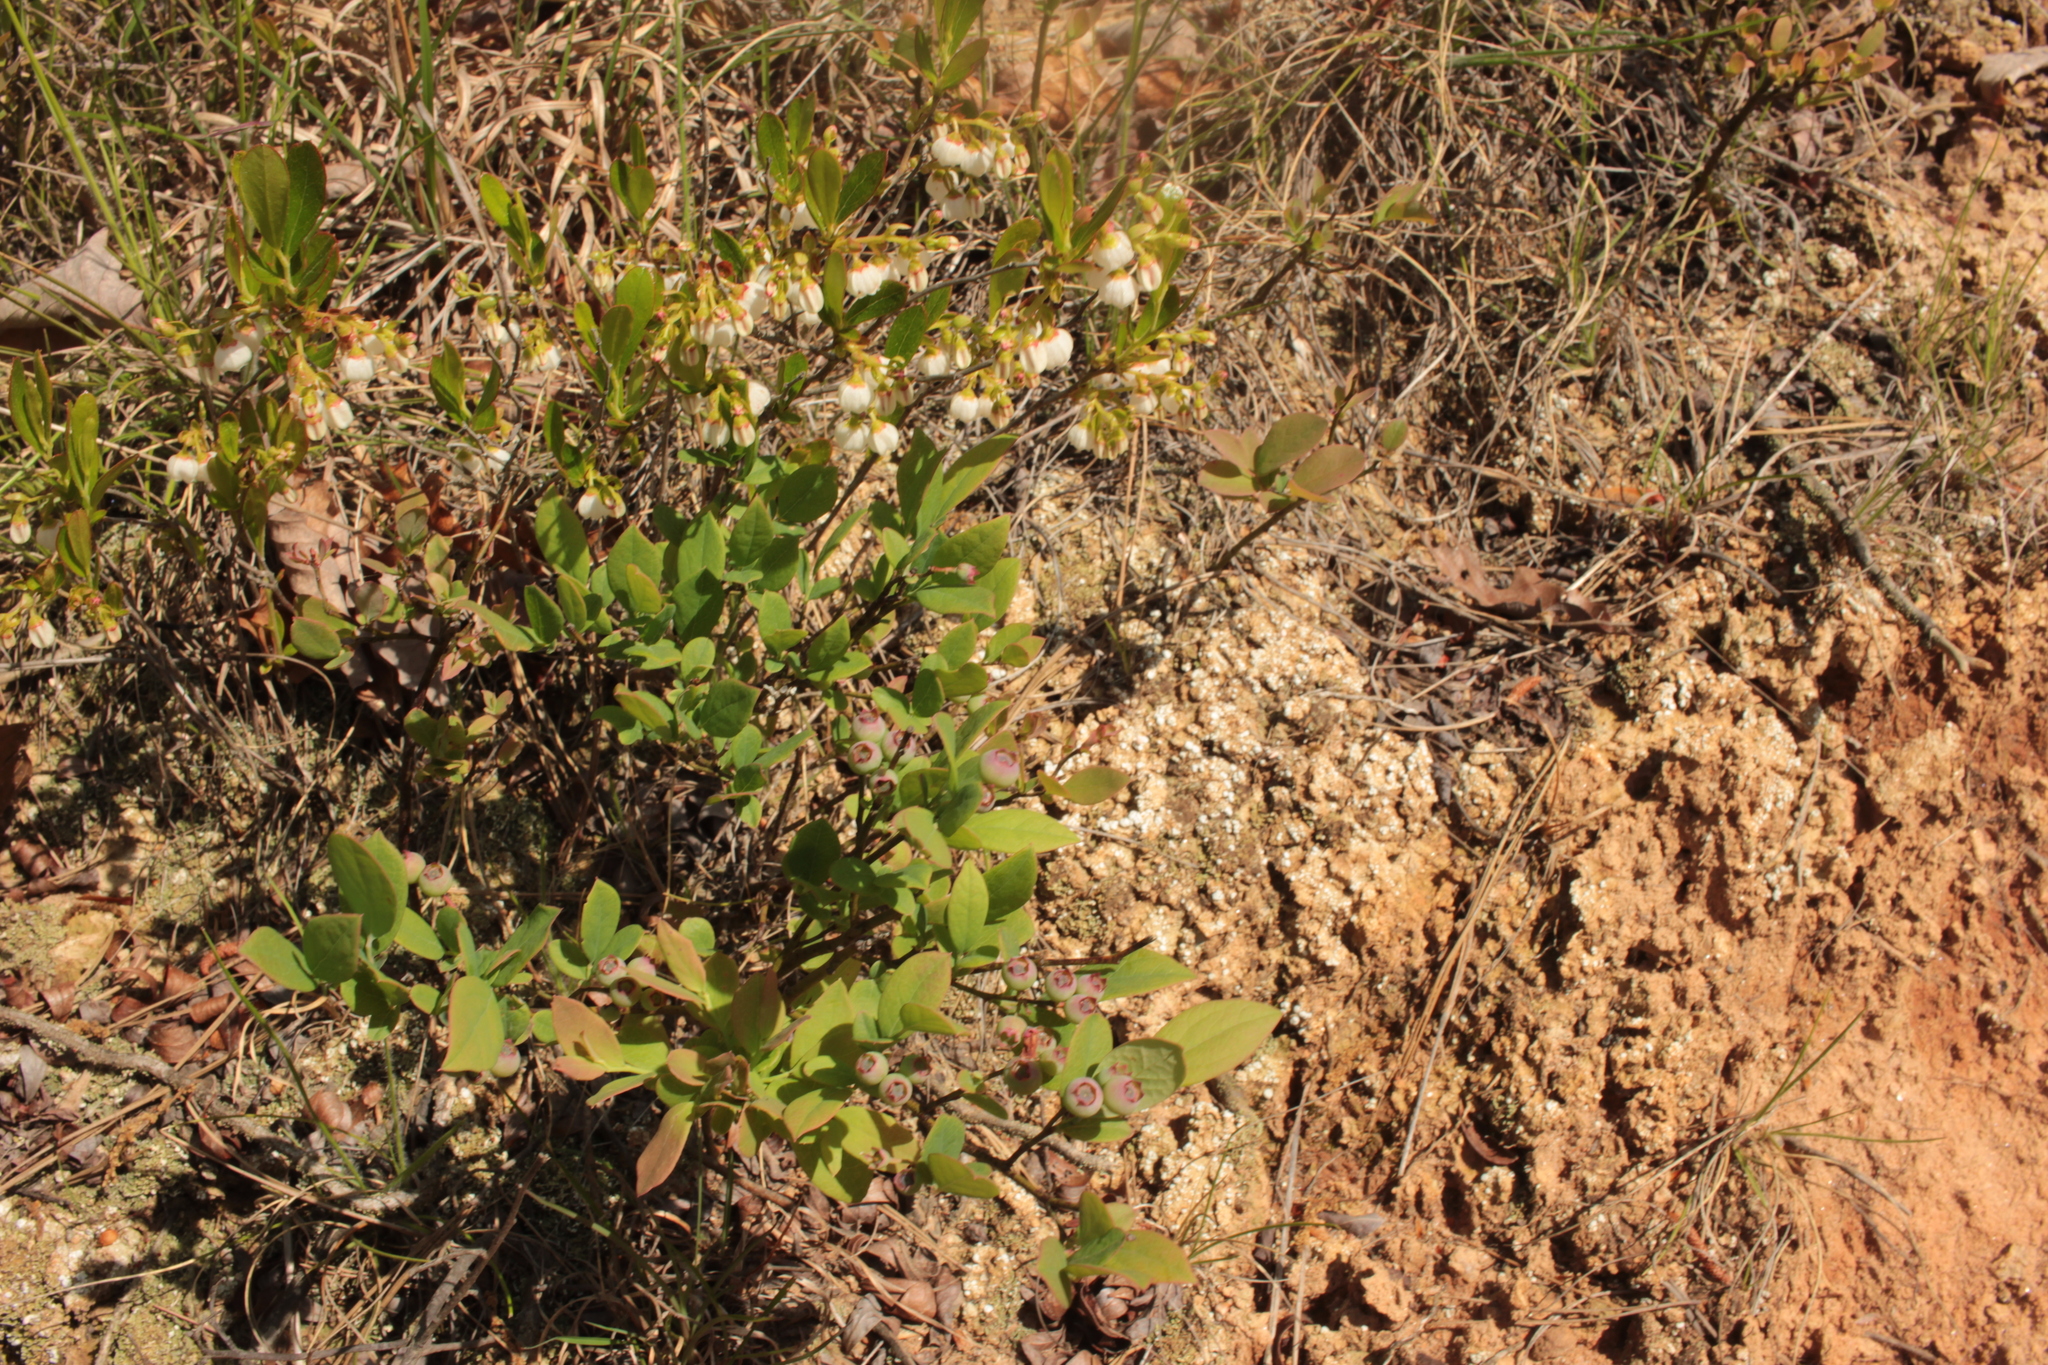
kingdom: Plantae
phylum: Tracheophyta
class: Magnoliopsida
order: Ericales
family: Ericaceae
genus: Vaccinium
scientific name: Vaccinium
